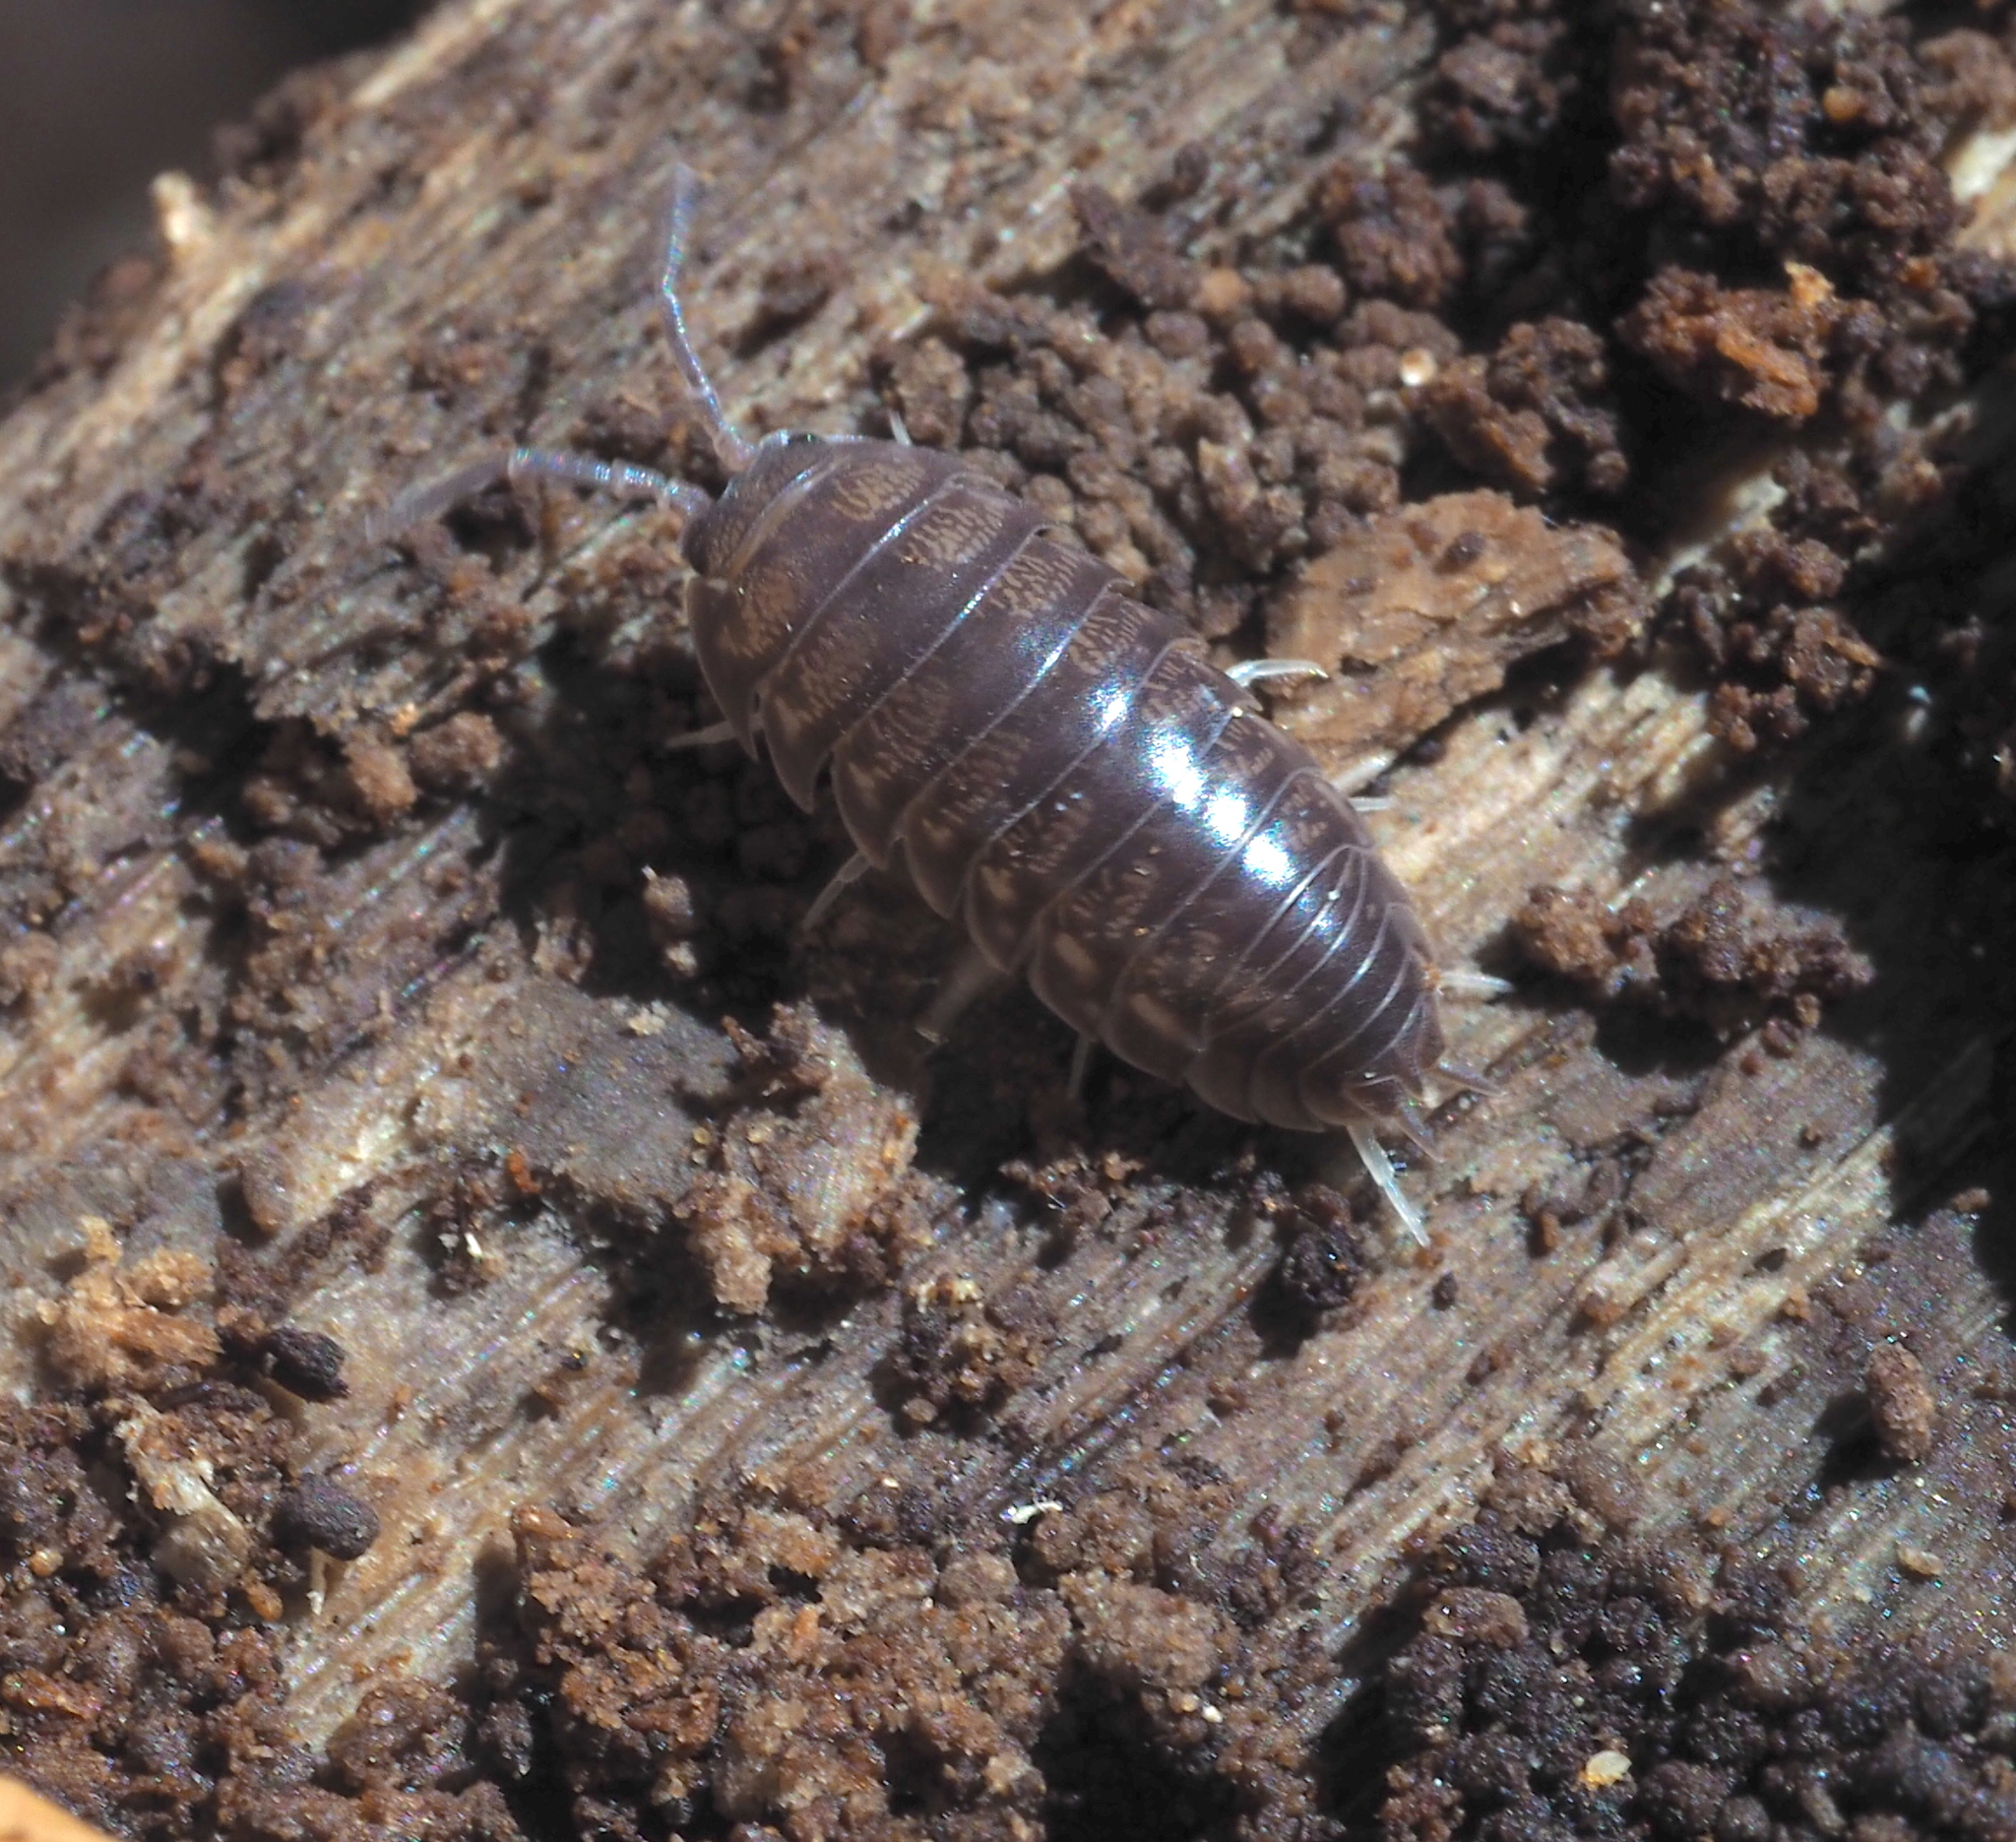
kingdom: Animalia
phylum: Arthropoda
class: Malacostraca
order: Isopoda
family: Cylisticidae
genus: Cylisticus
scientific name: Cylisticus convexus
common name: Curly woodlouse
